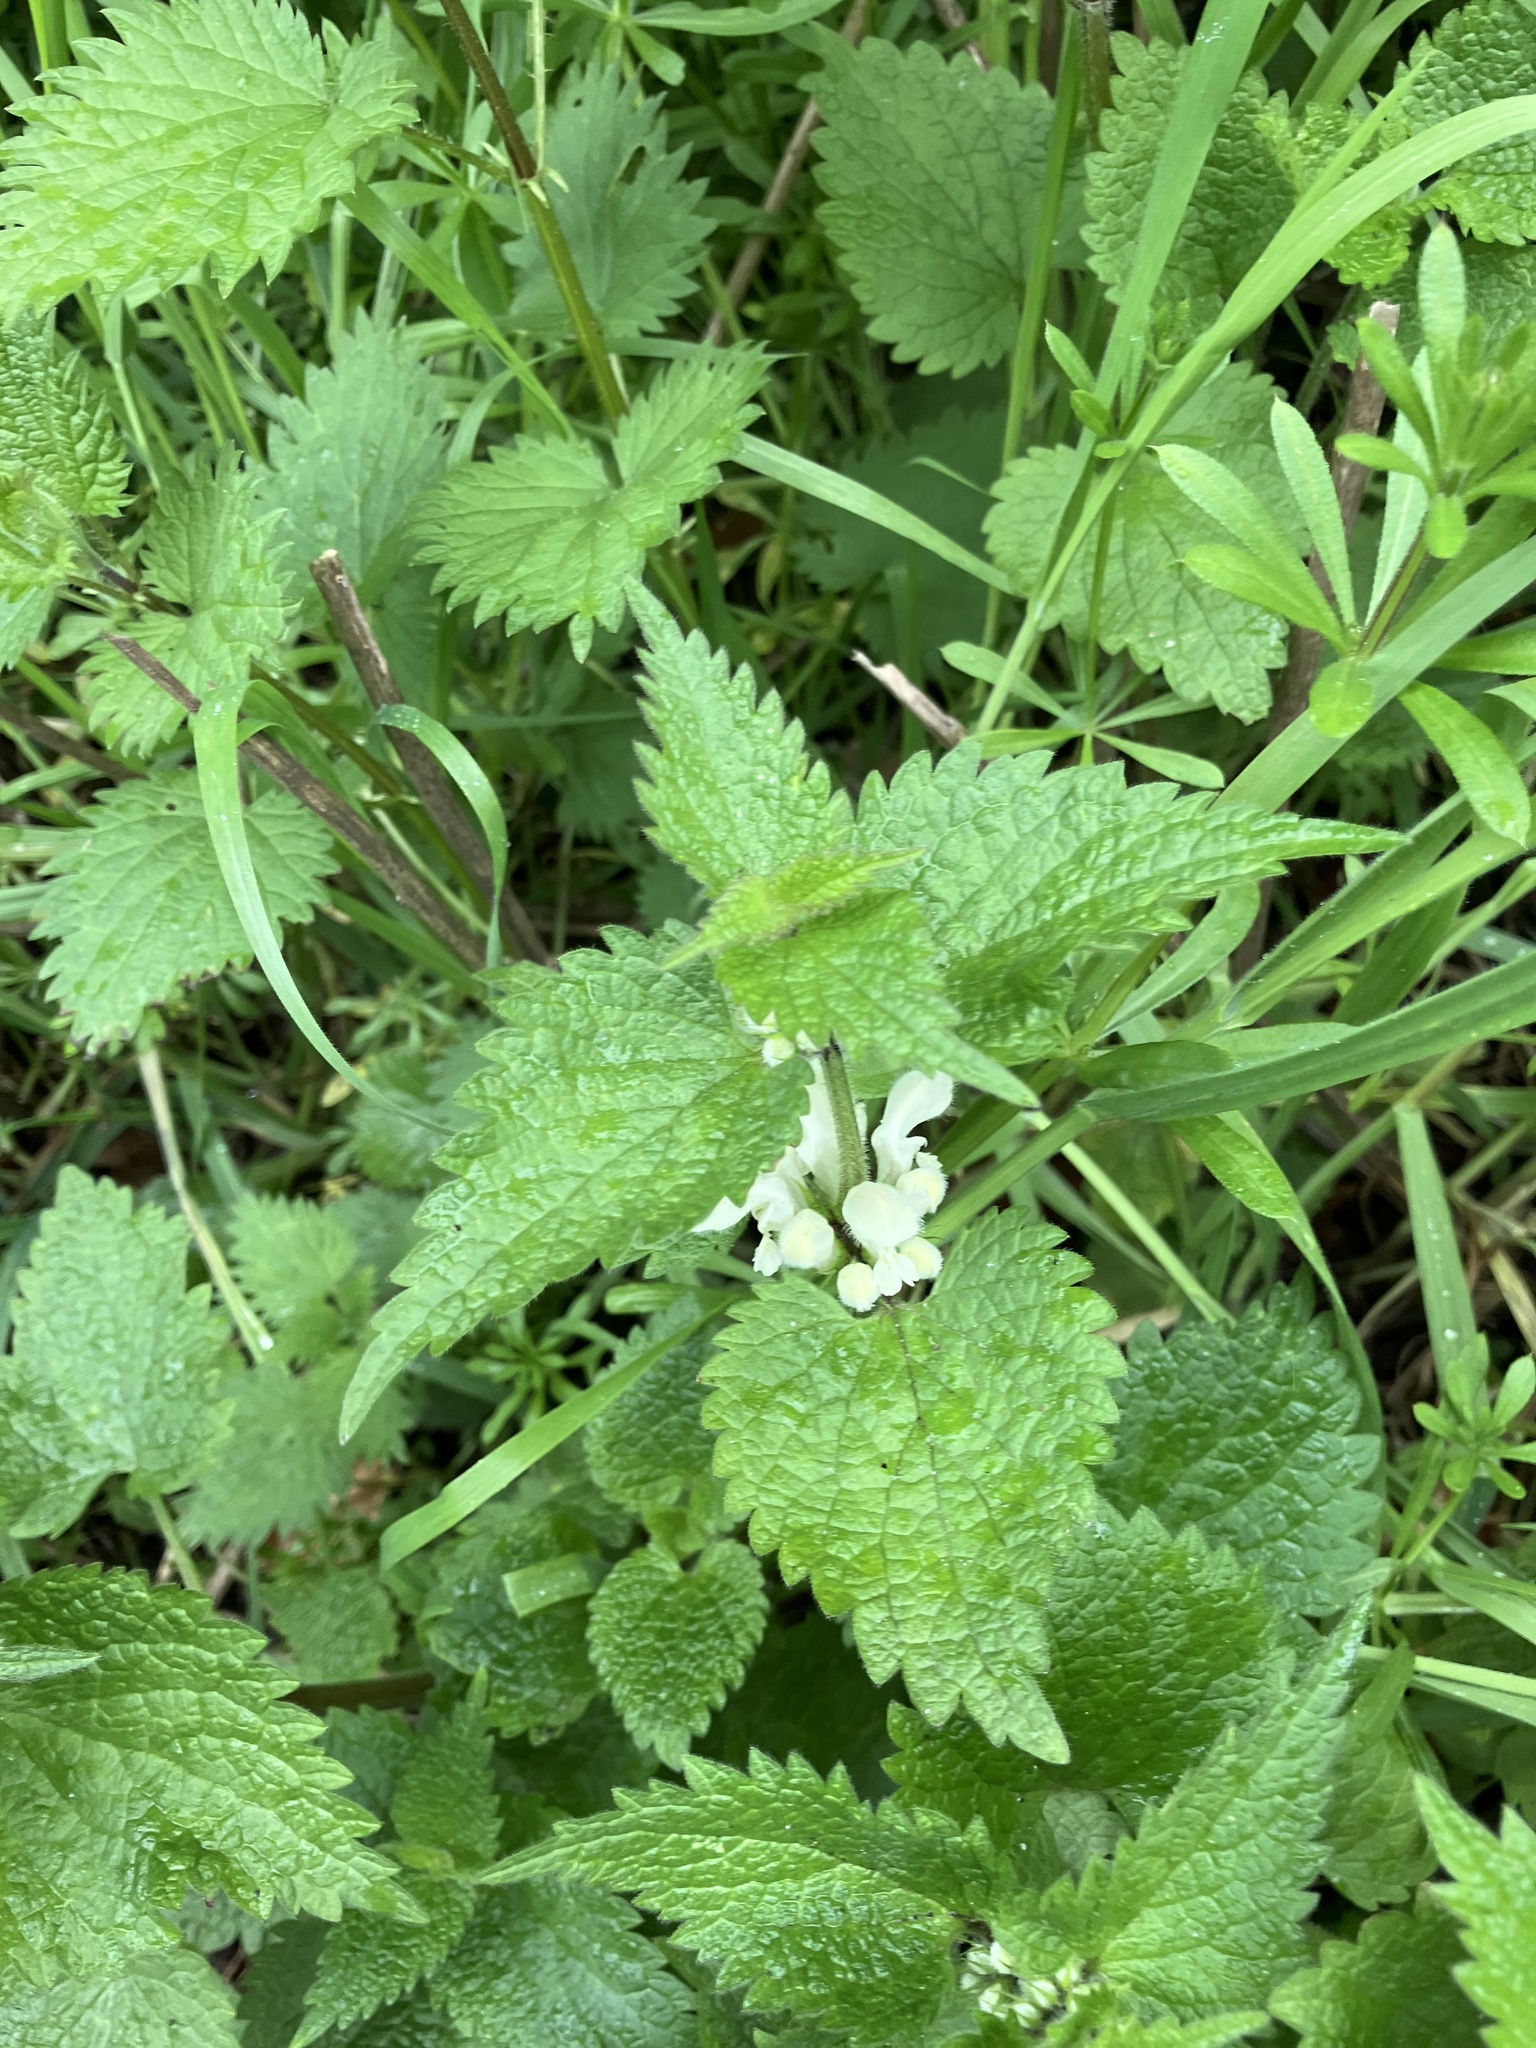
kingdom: Plantae
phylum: Tracheophyta
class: Magnoliopsida
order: Lamiales
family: Lamiaceae
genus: Lamium
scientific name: Lamium album
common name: White dead-nettle
